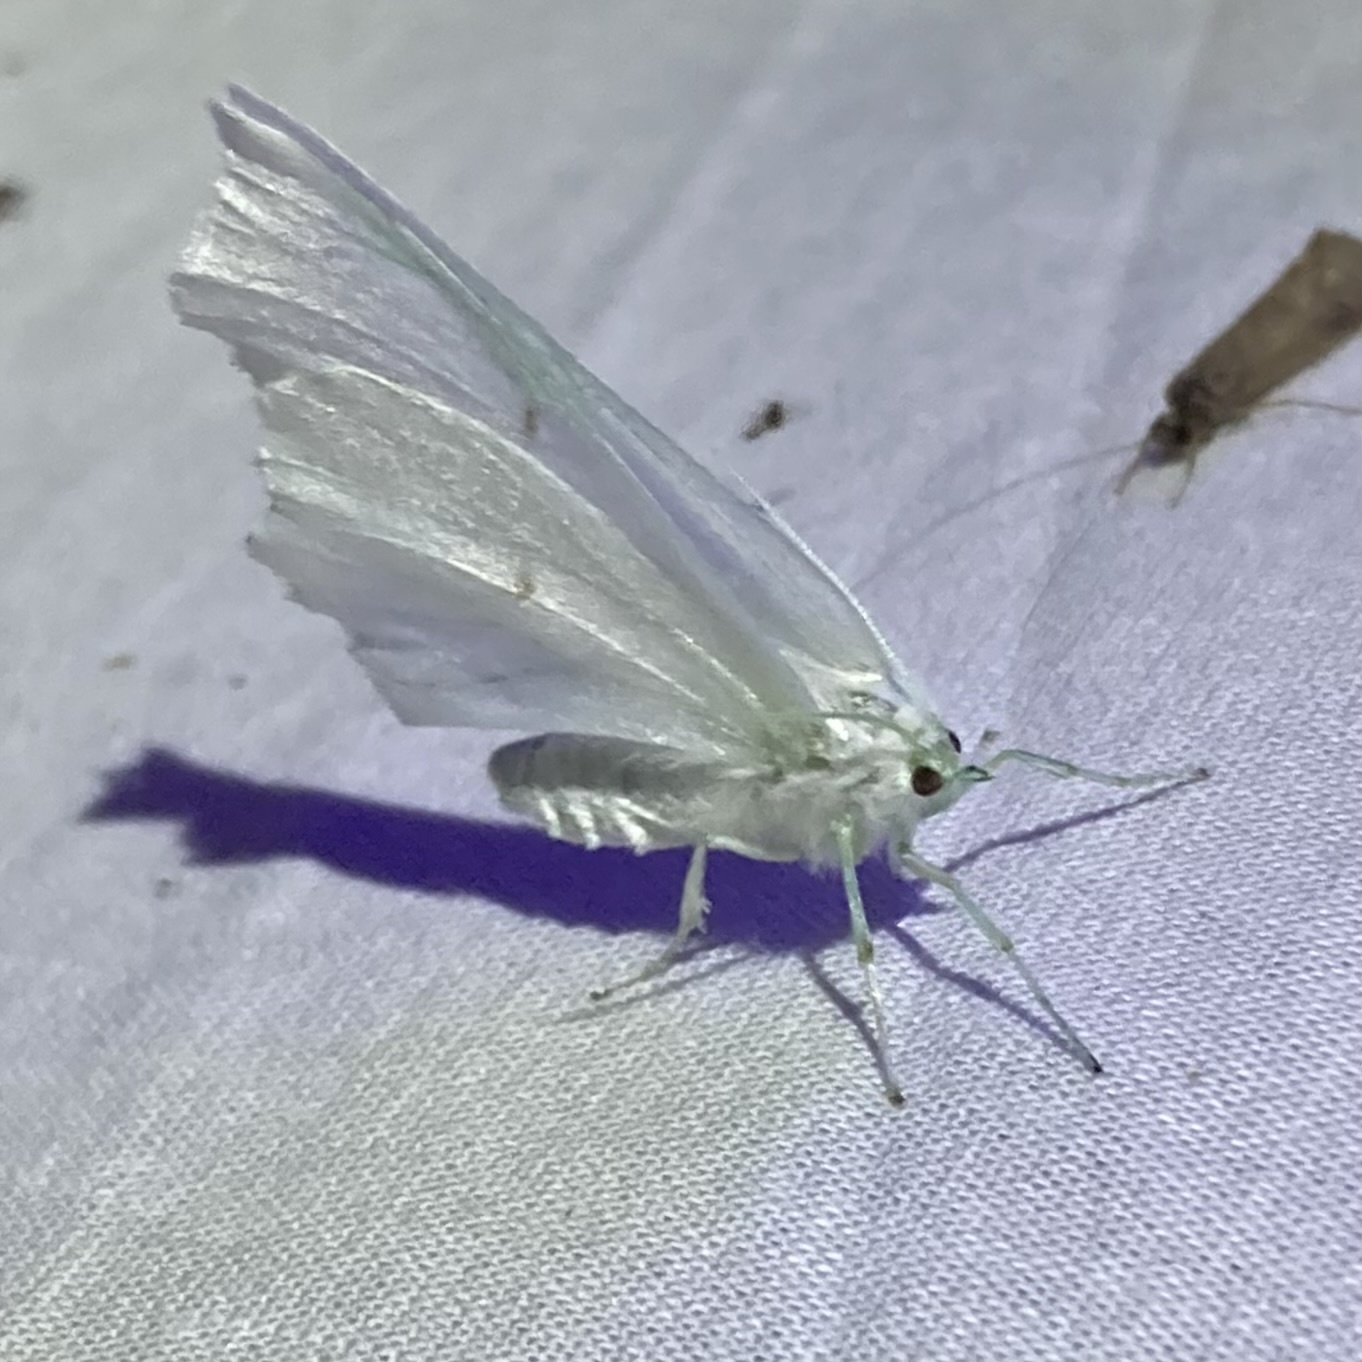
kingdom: Animalia
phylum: Arthropoda
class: Insecta
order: Lepidoptera
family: Geometridae
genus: Ennomos
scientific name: Ennomos subsignaria
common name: Elm spanworm
